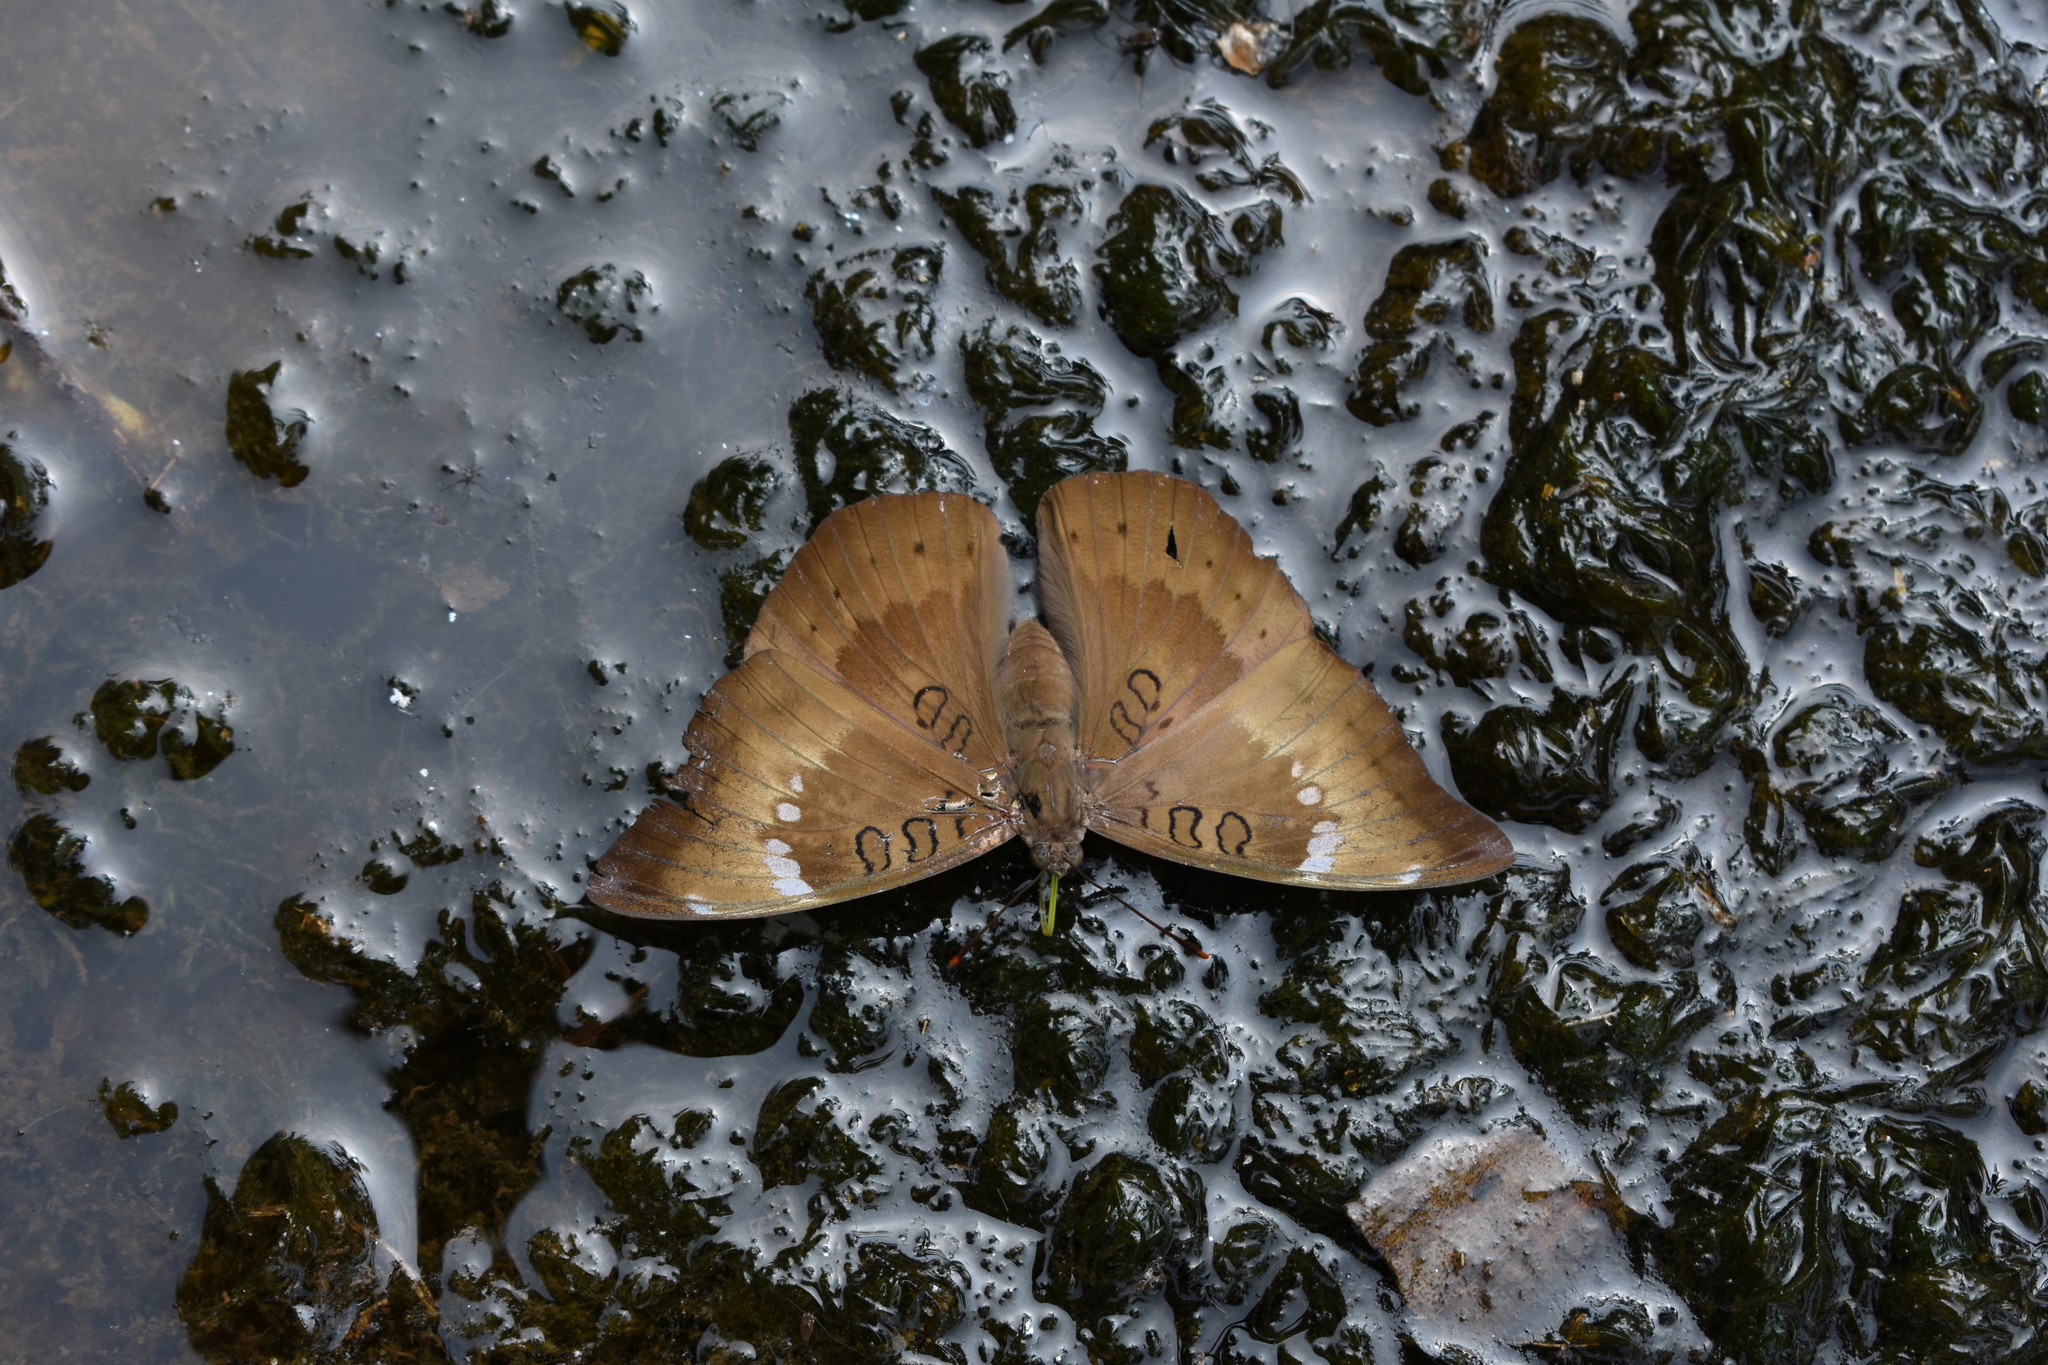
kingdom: Animalia
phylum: Arthropoda
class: Insecta
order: Lepidoptera
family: Nymphalidae
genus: Euthalia
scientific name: Euthalia aconthea
